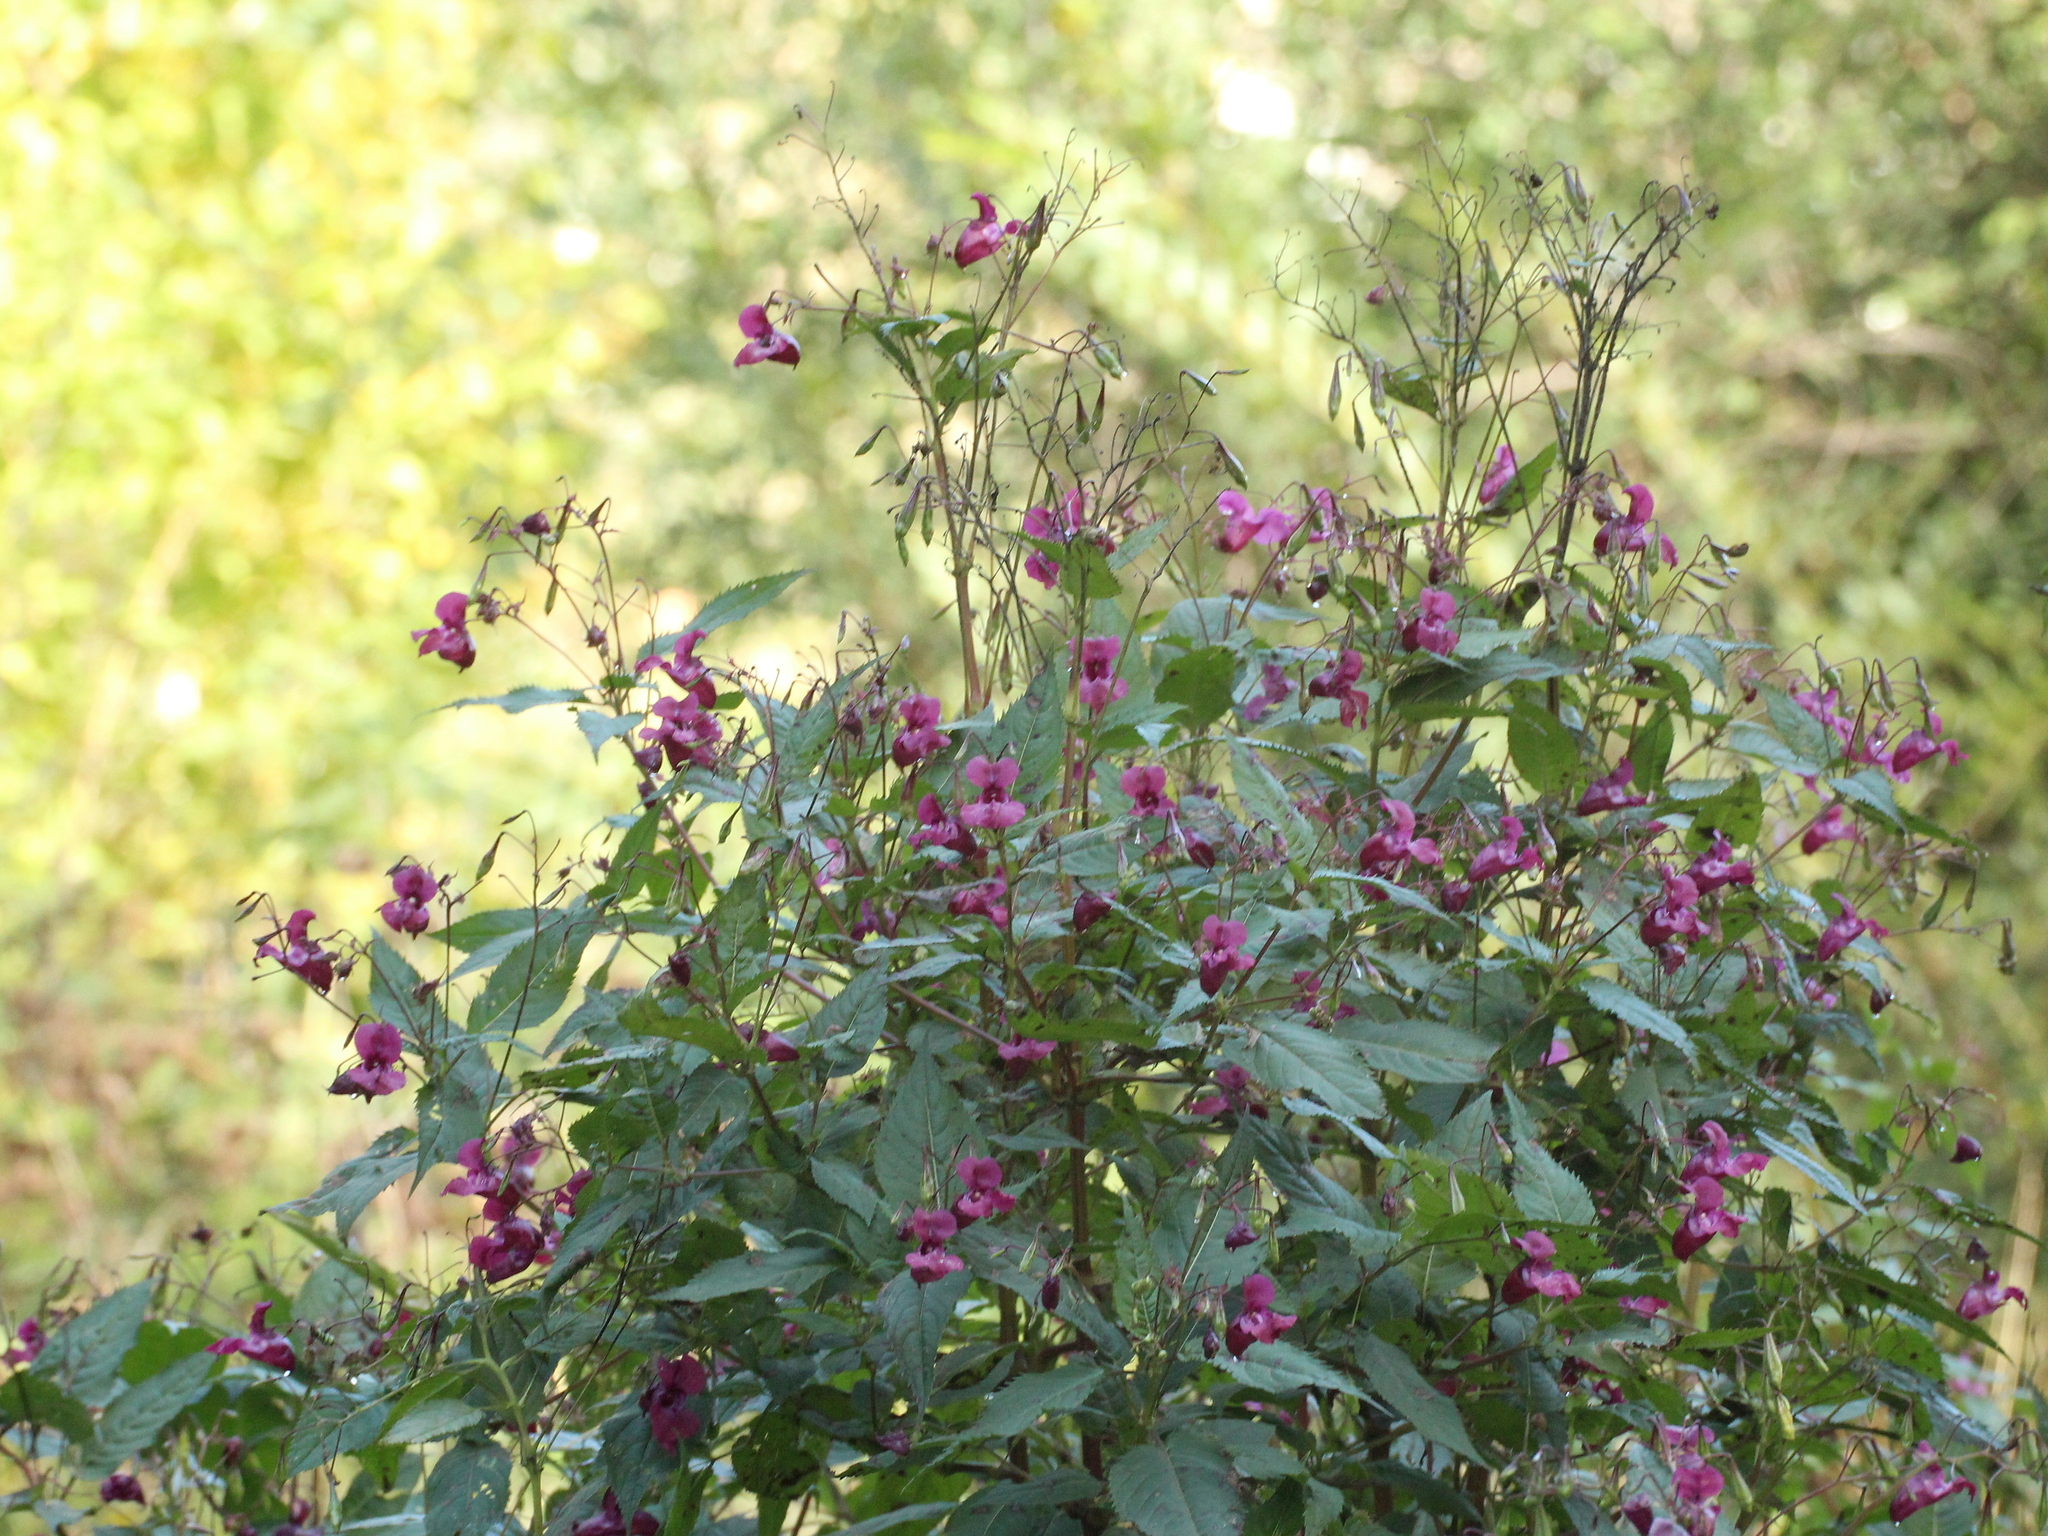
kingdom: Plantae
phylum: Tracheophyta
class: Magnoliopsida
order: Ericales
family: Balsaminaceae
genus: Impatiens
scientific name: Impatiens glandulifera
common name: Himalayan balsam
